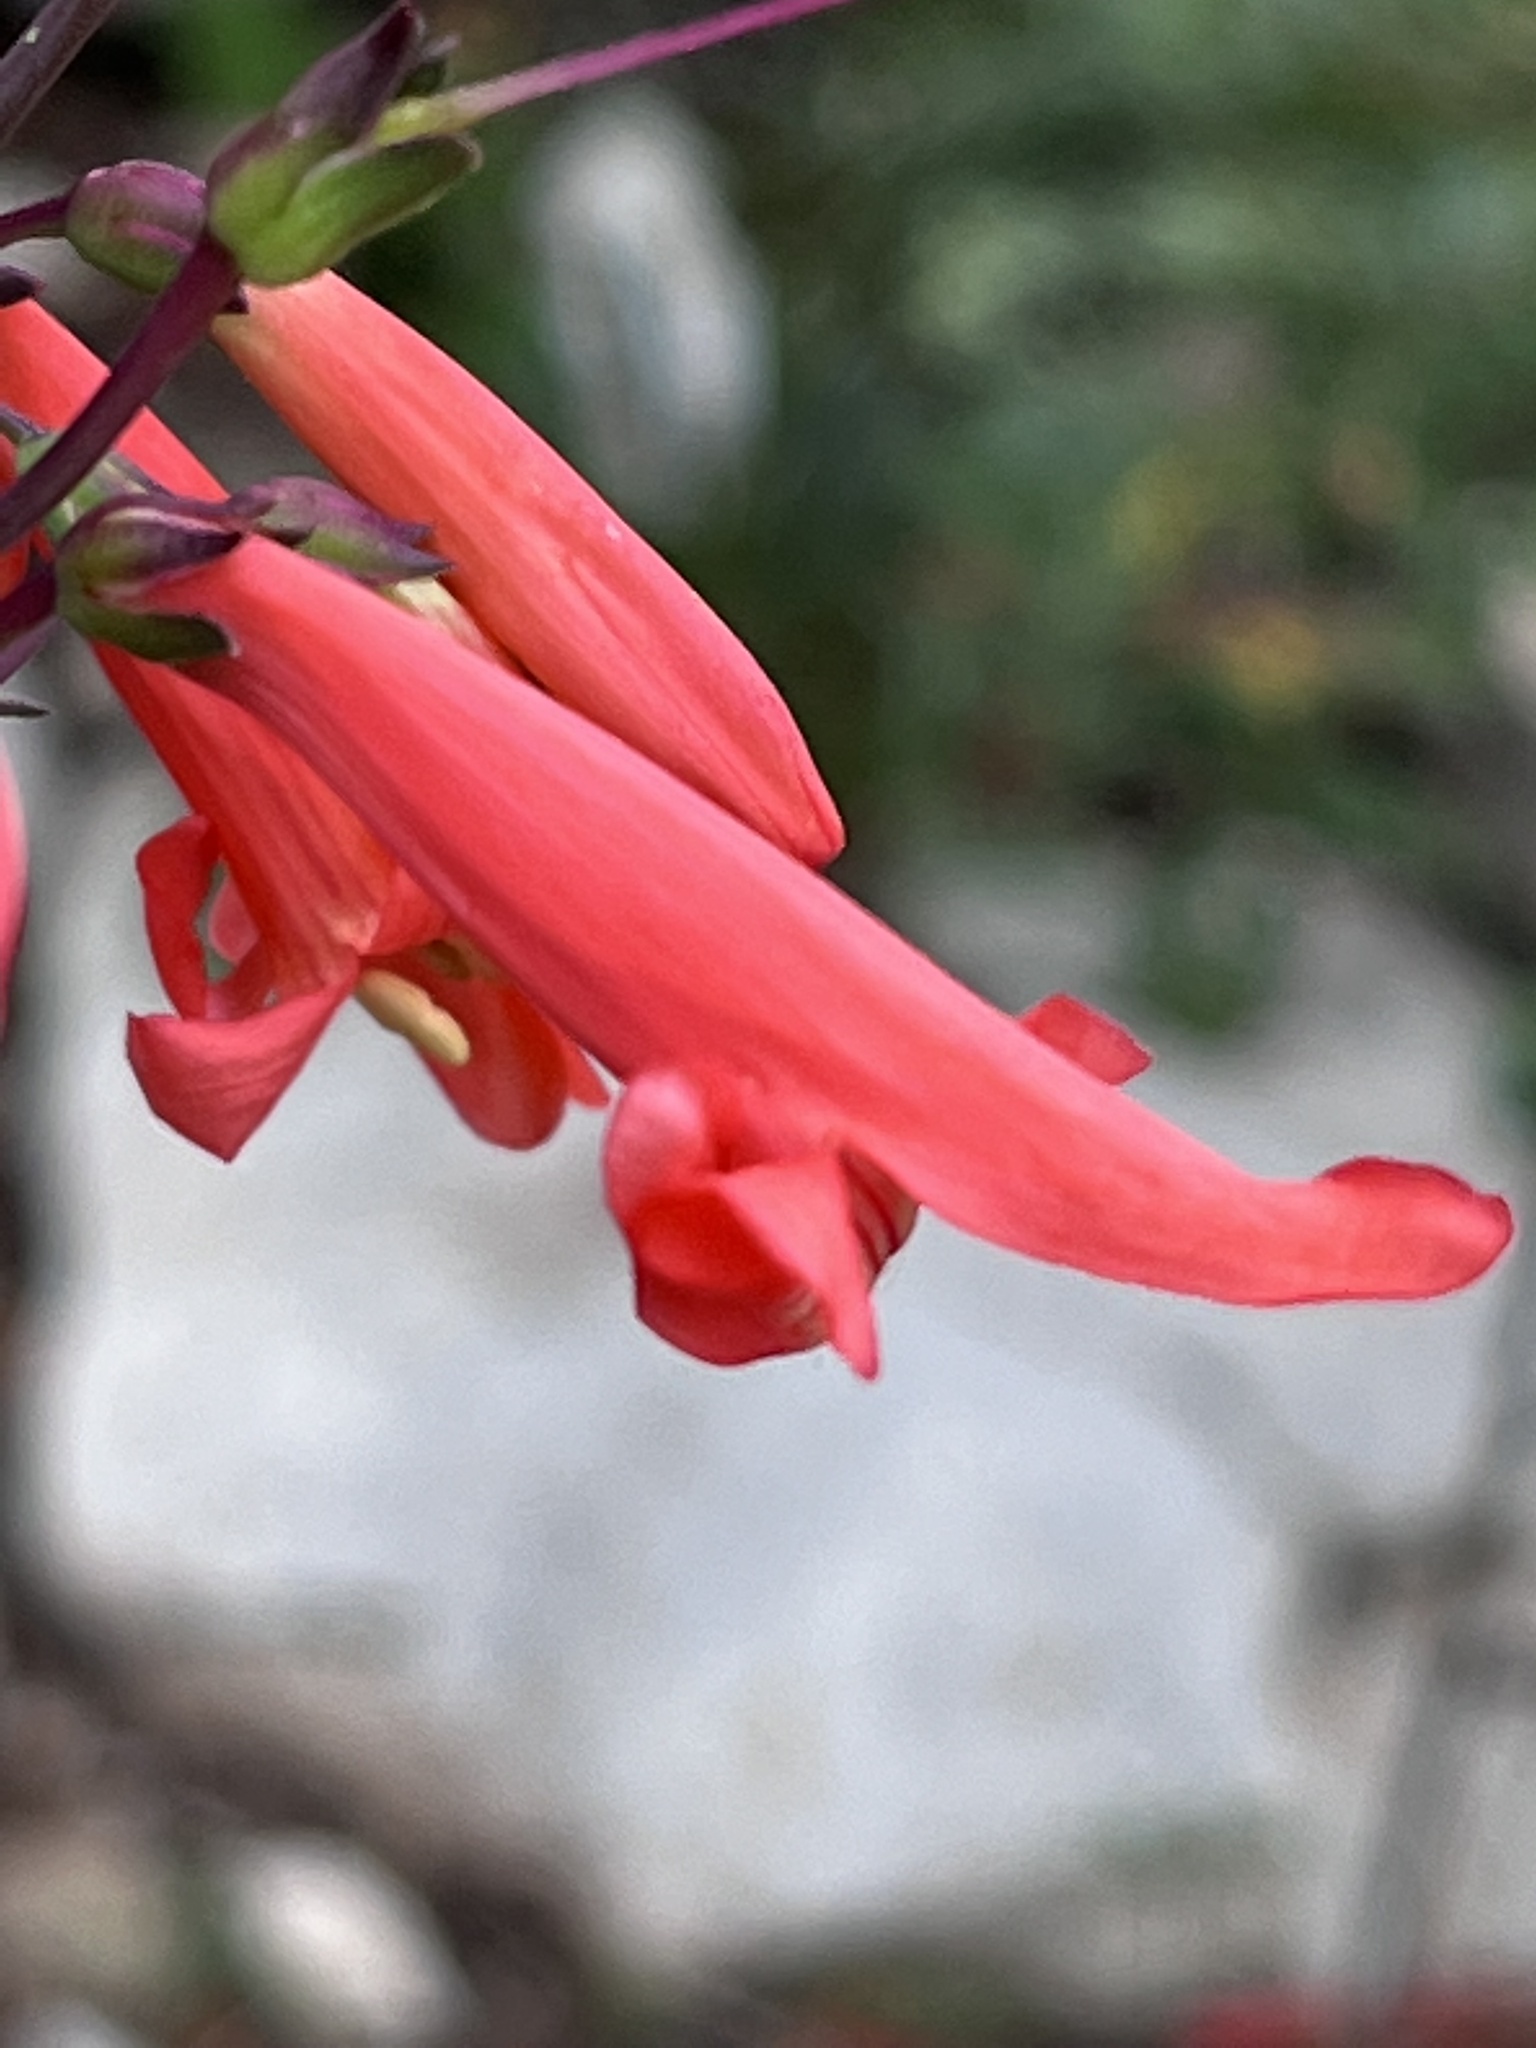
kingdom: Plantae
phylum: Tracheophyta
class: Magnoliopsida
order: Lamiales
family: Plantaginaceae
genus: Penstemon
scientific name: Penstemon barbatus
